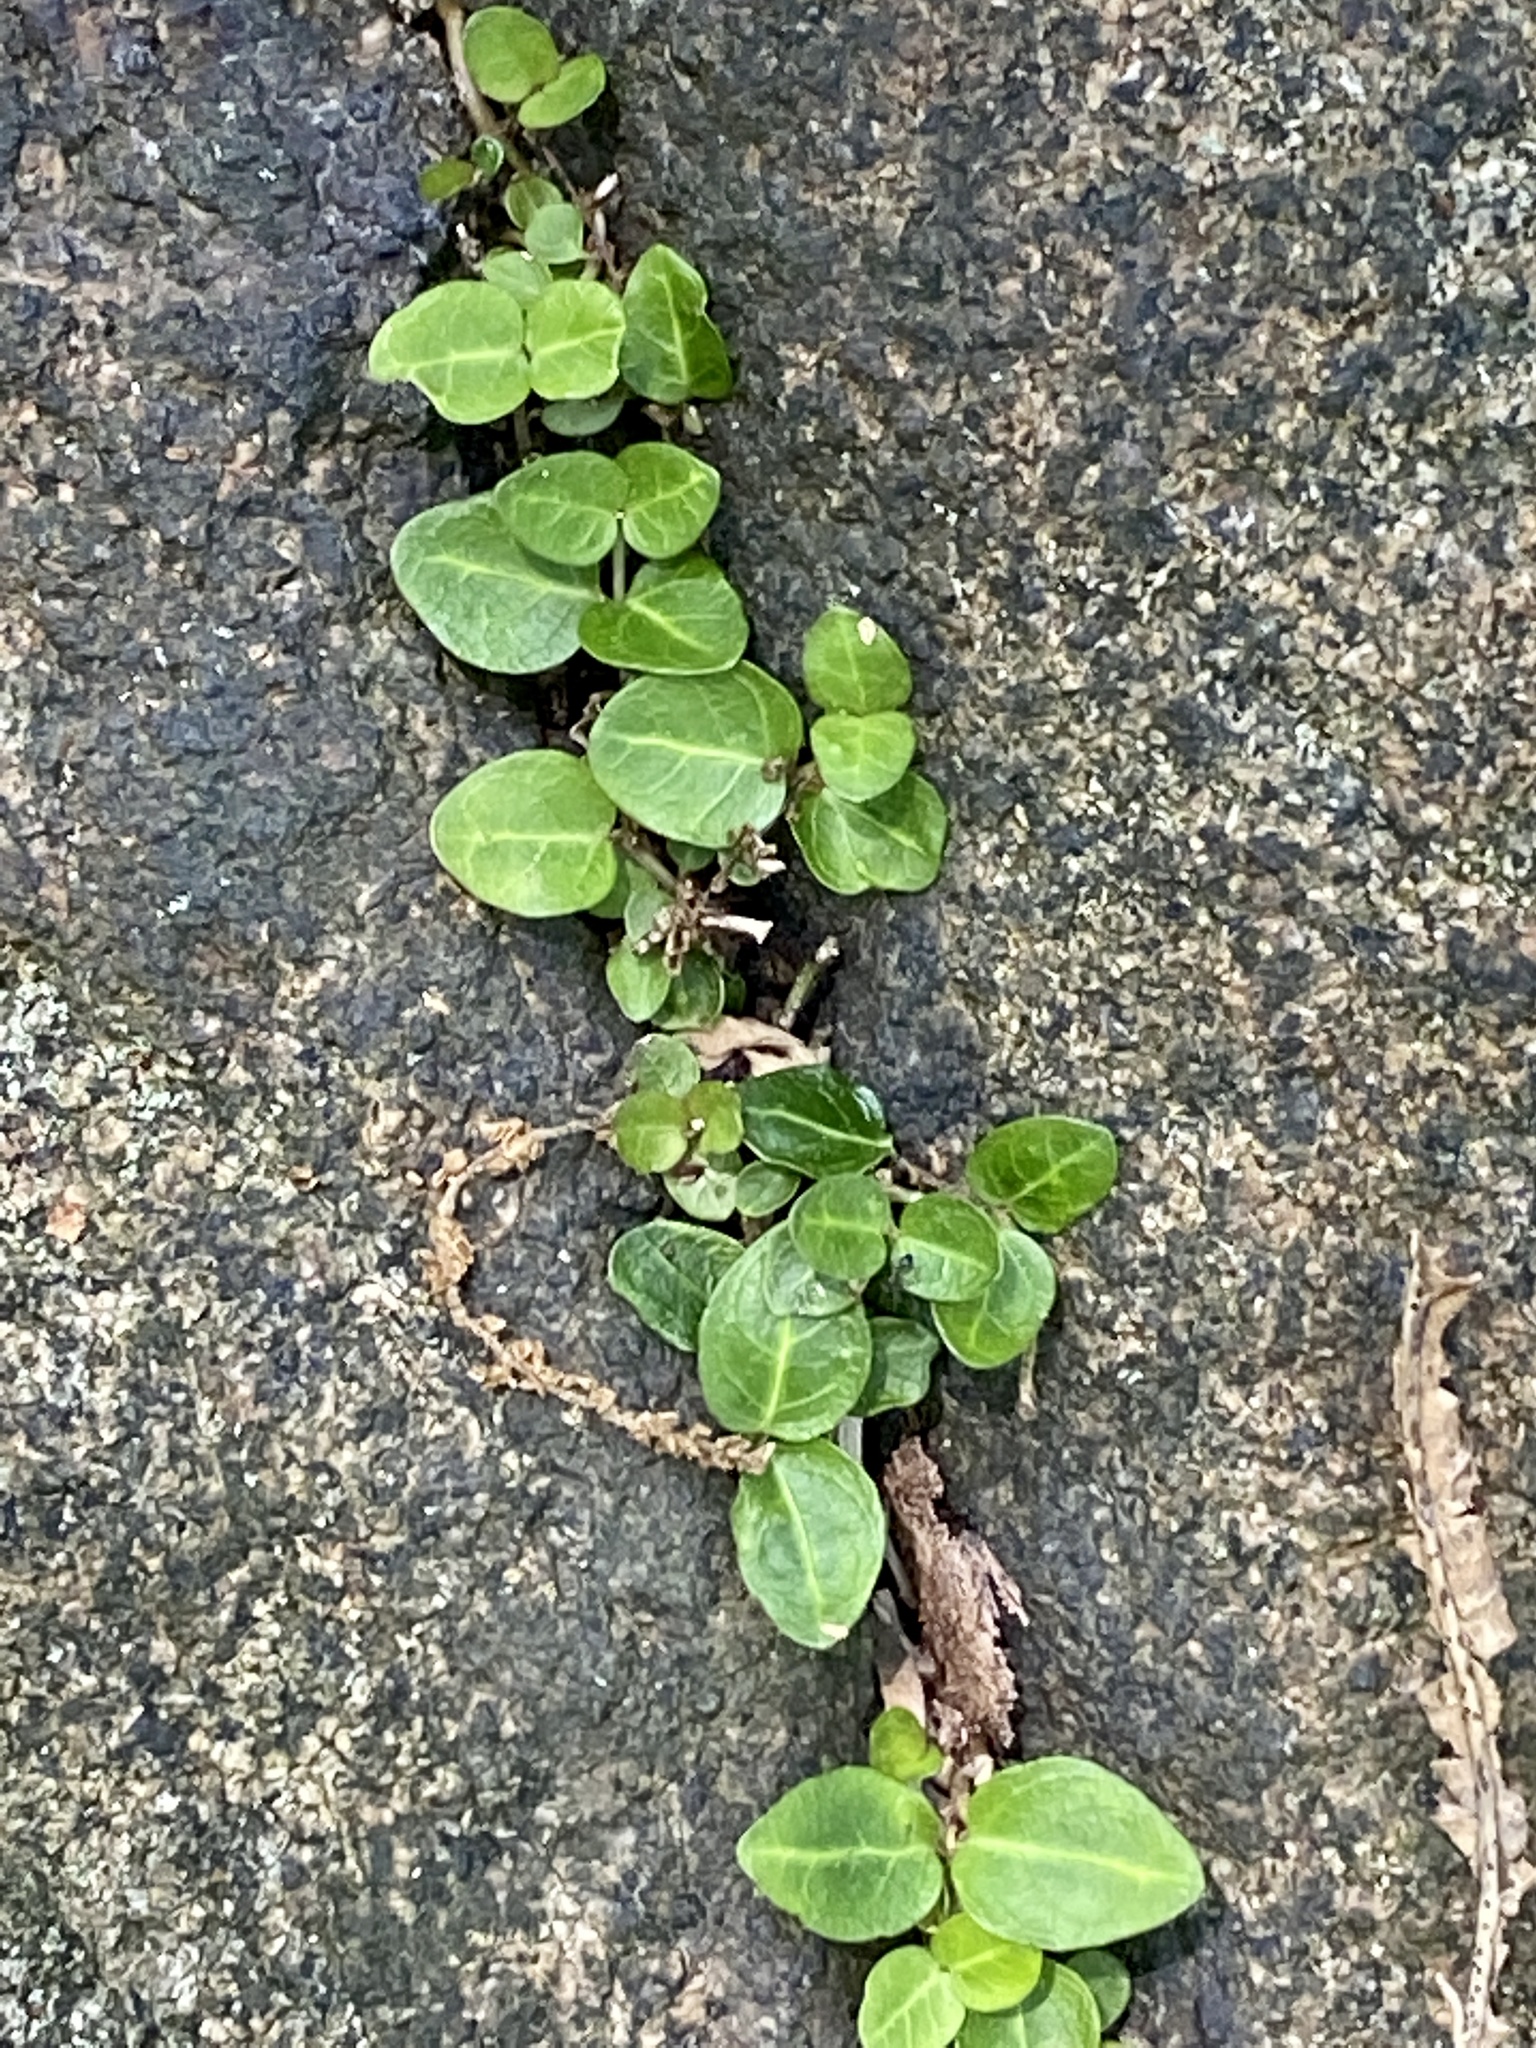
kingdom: Plantae
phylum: Tracheophyta
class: Magnoliopsida
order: Gentianales
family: Rubiaceae
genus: Mitchella
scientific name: Mitchella repens
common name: Partridge-berry
